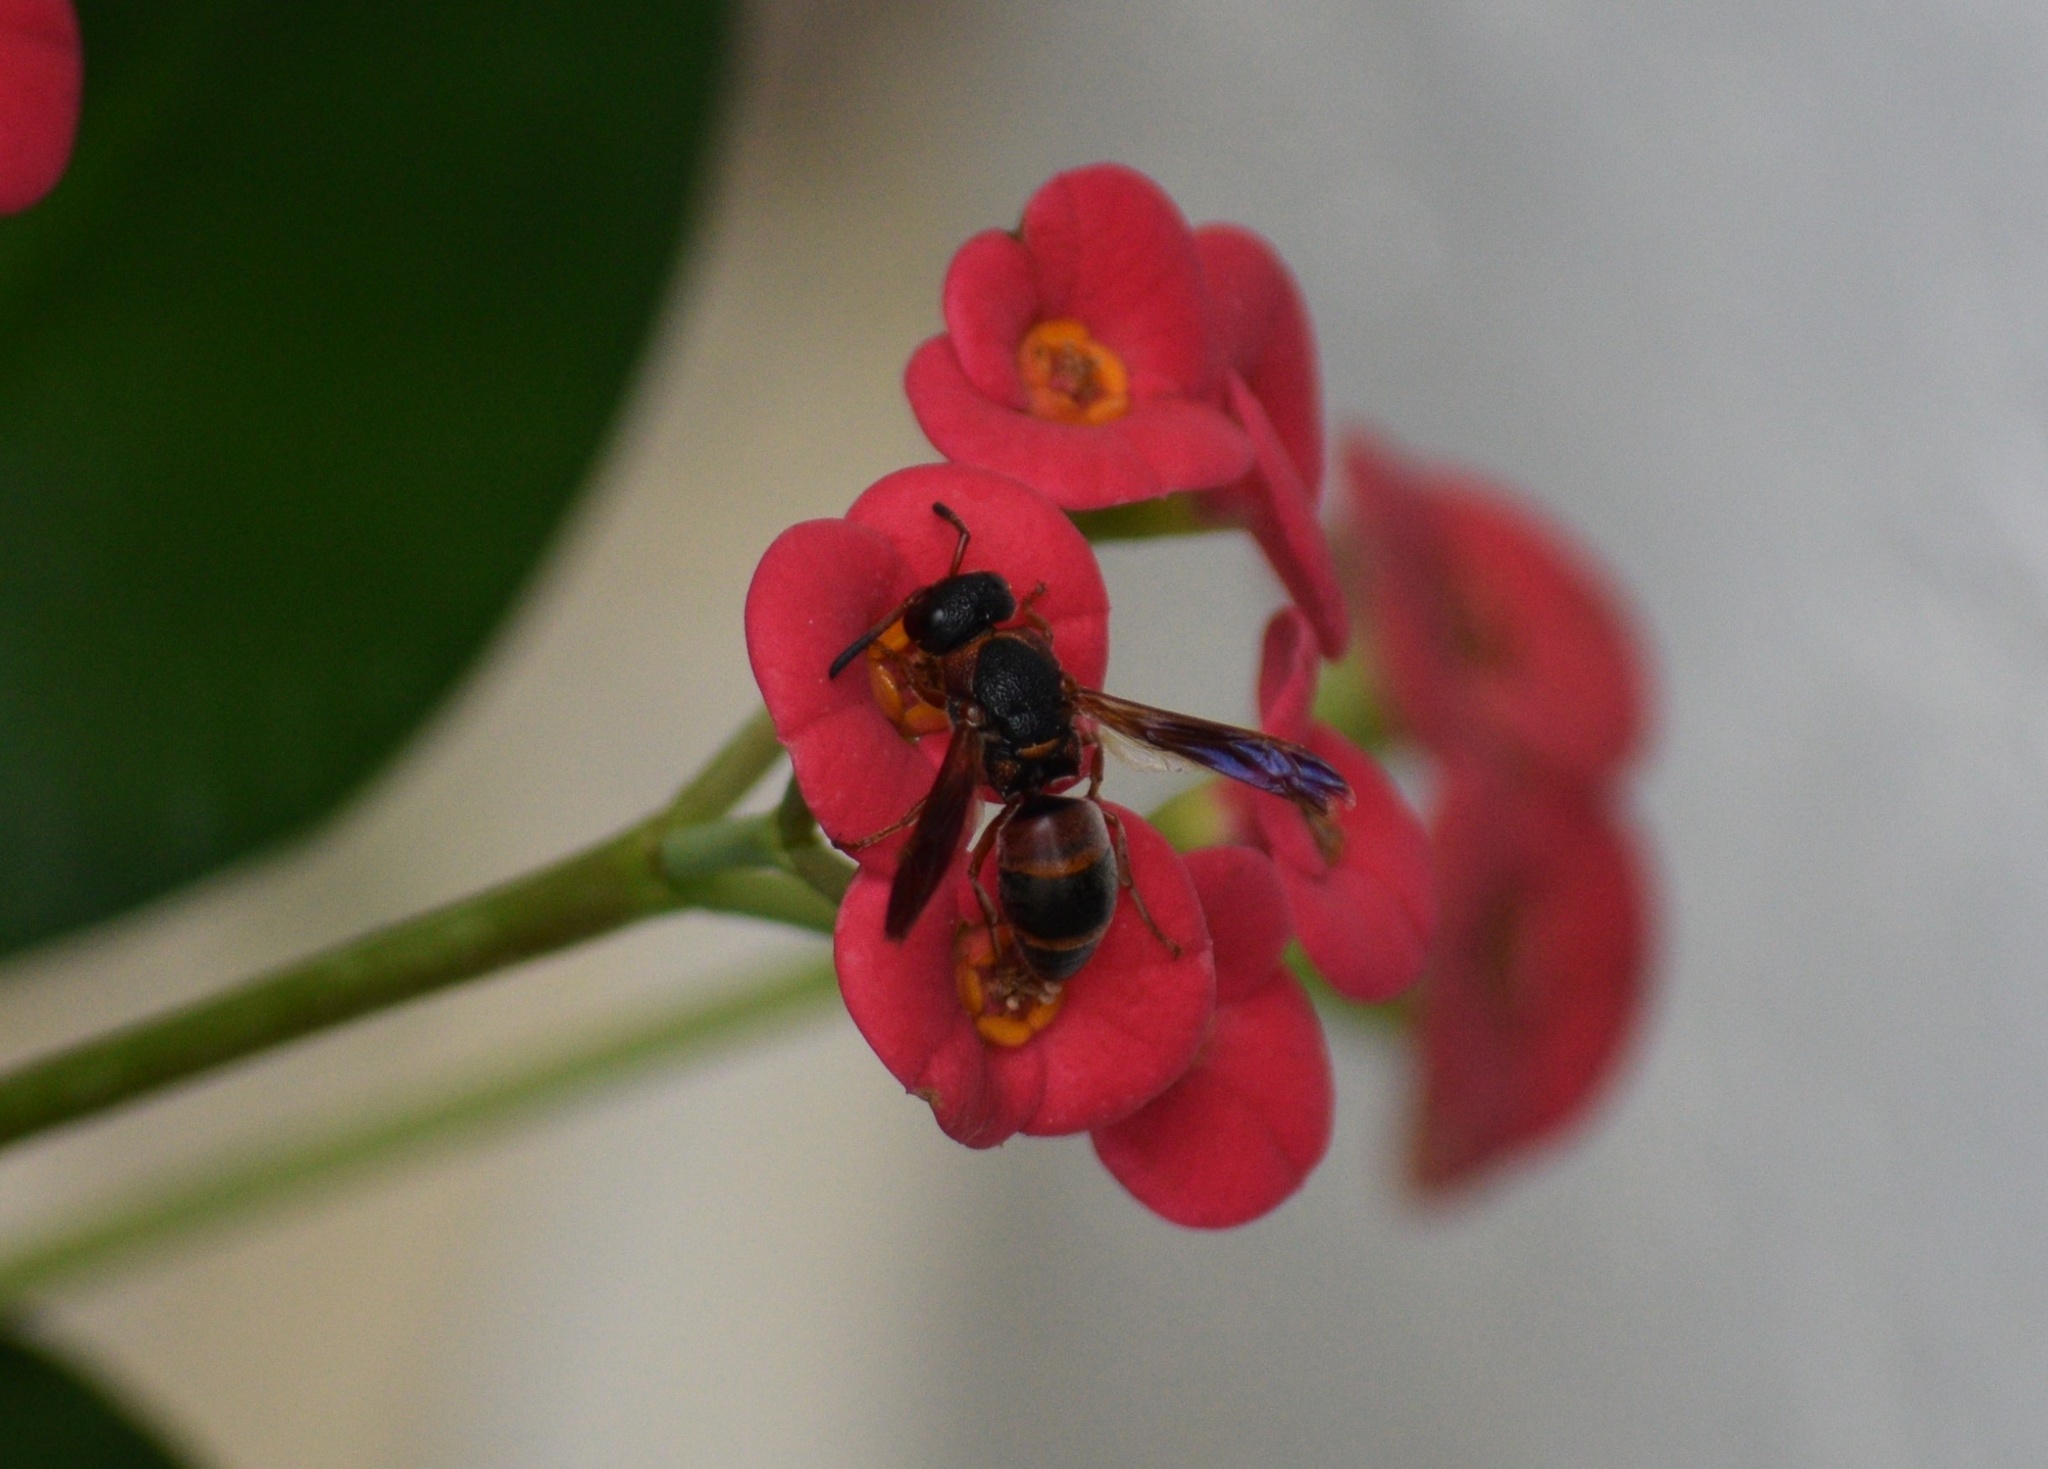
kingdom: Animalia
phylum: Arthropoda
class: Insecta
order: Hymenoptera
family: Eumenidae
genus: Pachodynerus
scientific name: Pachodynerus erynnis
